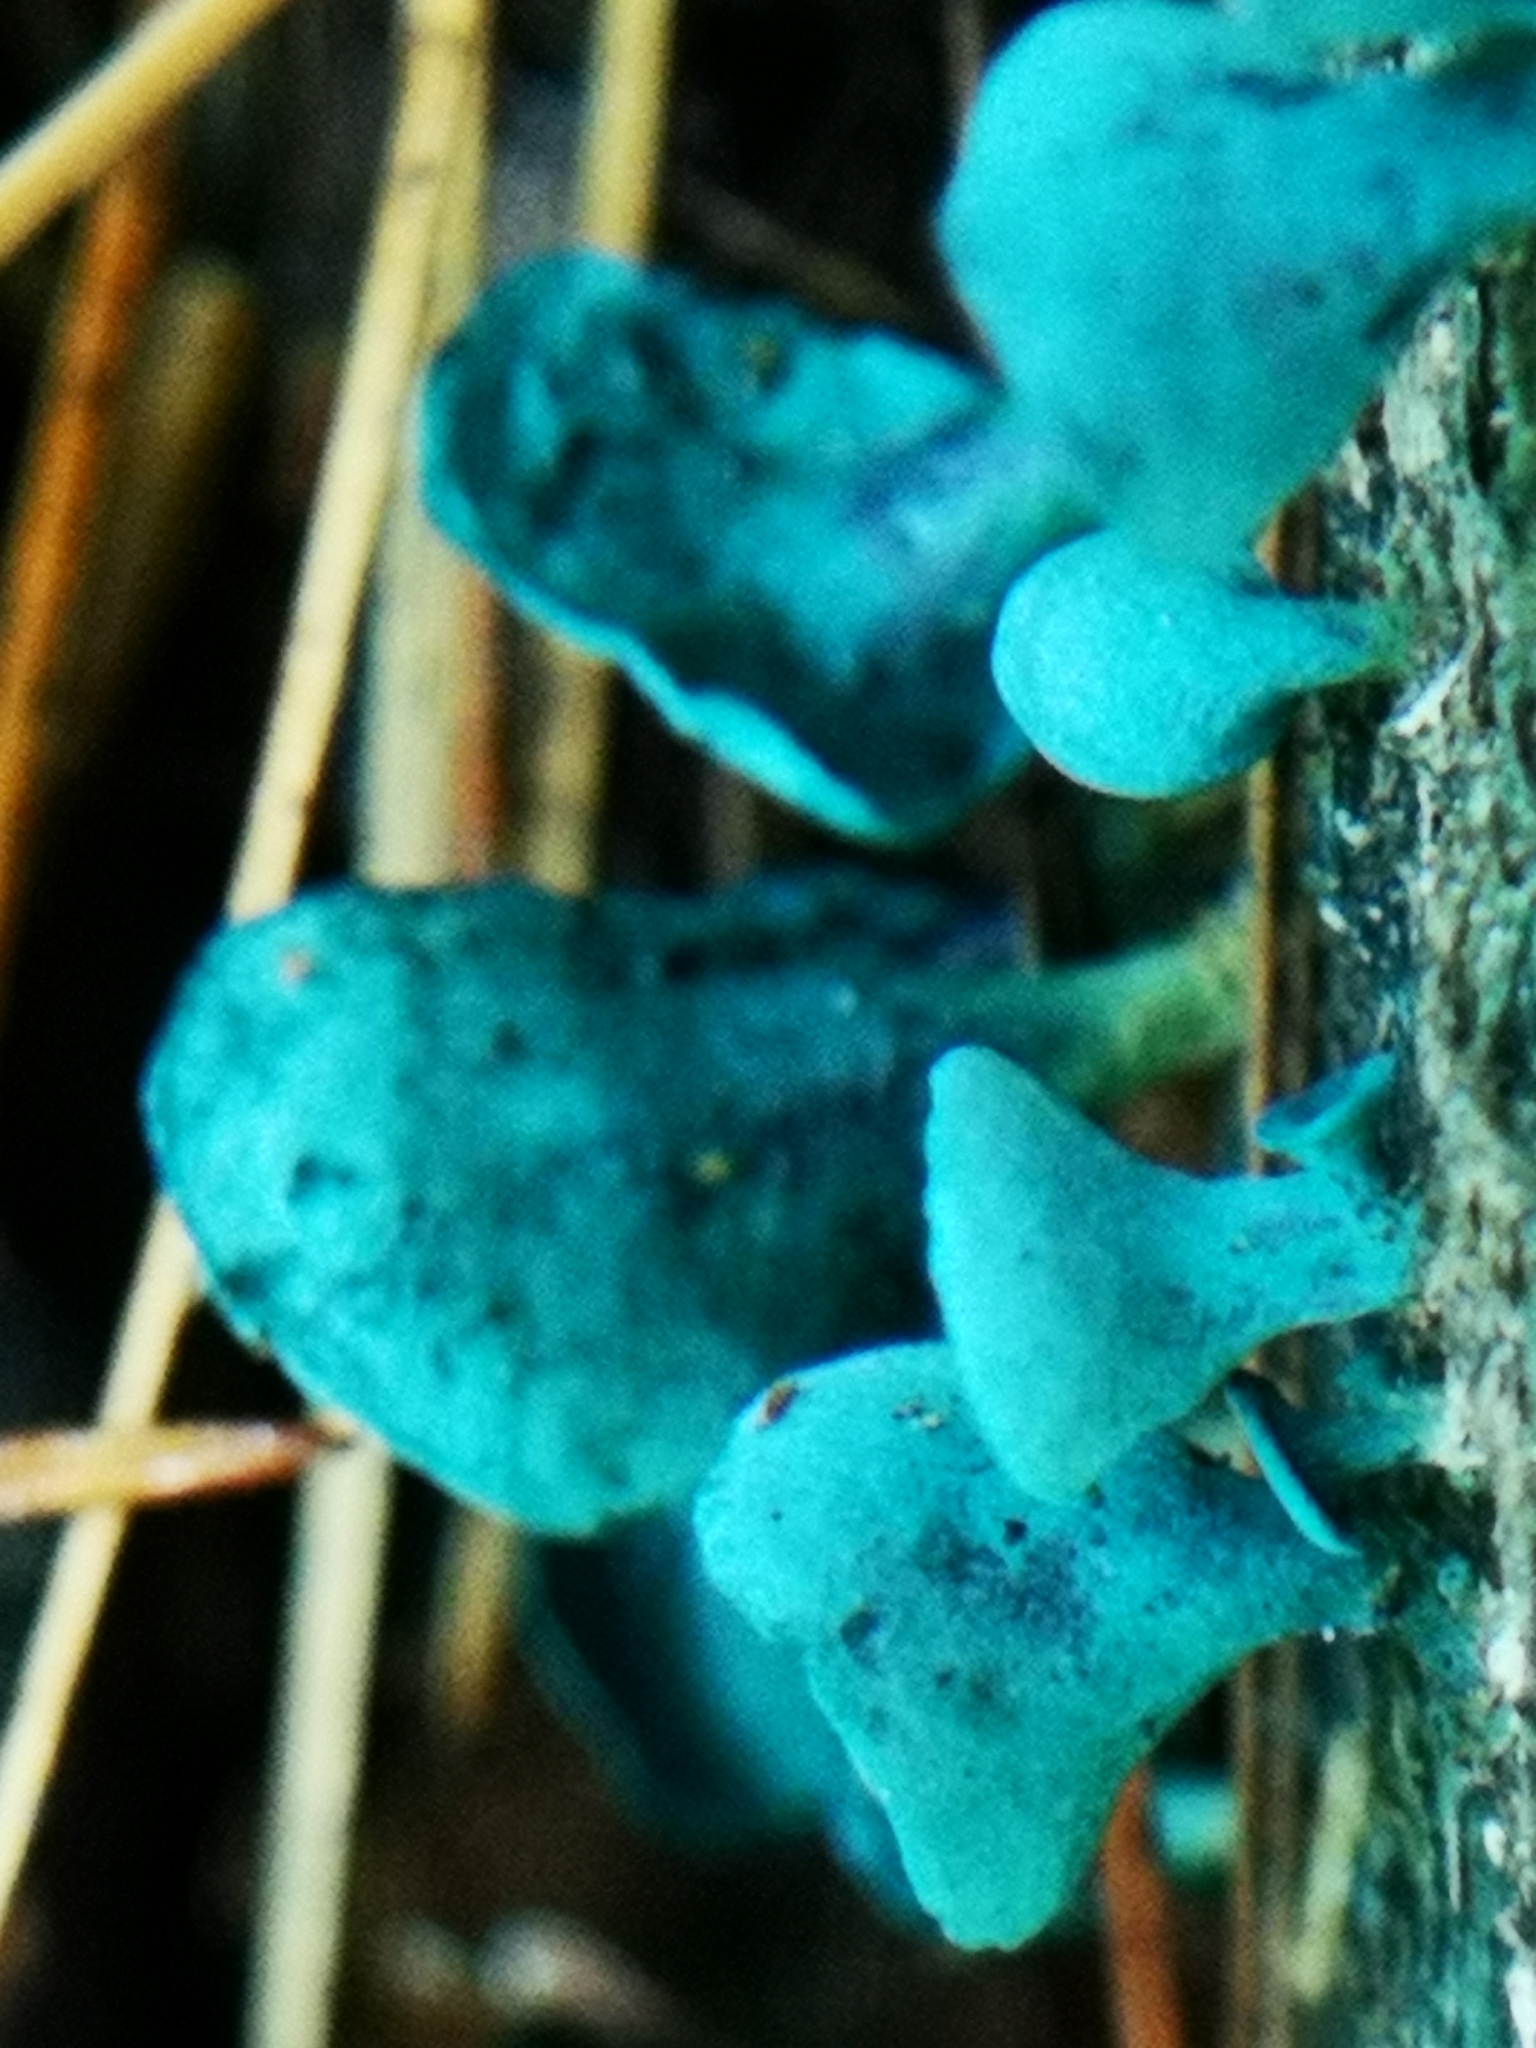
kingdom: Fungi
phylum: Ascomycota
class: Leotiomycetes
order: Helotiales
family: Chlorociboriaceae
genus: Chlorociboria
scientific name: Chlorociboria aeruginascens
